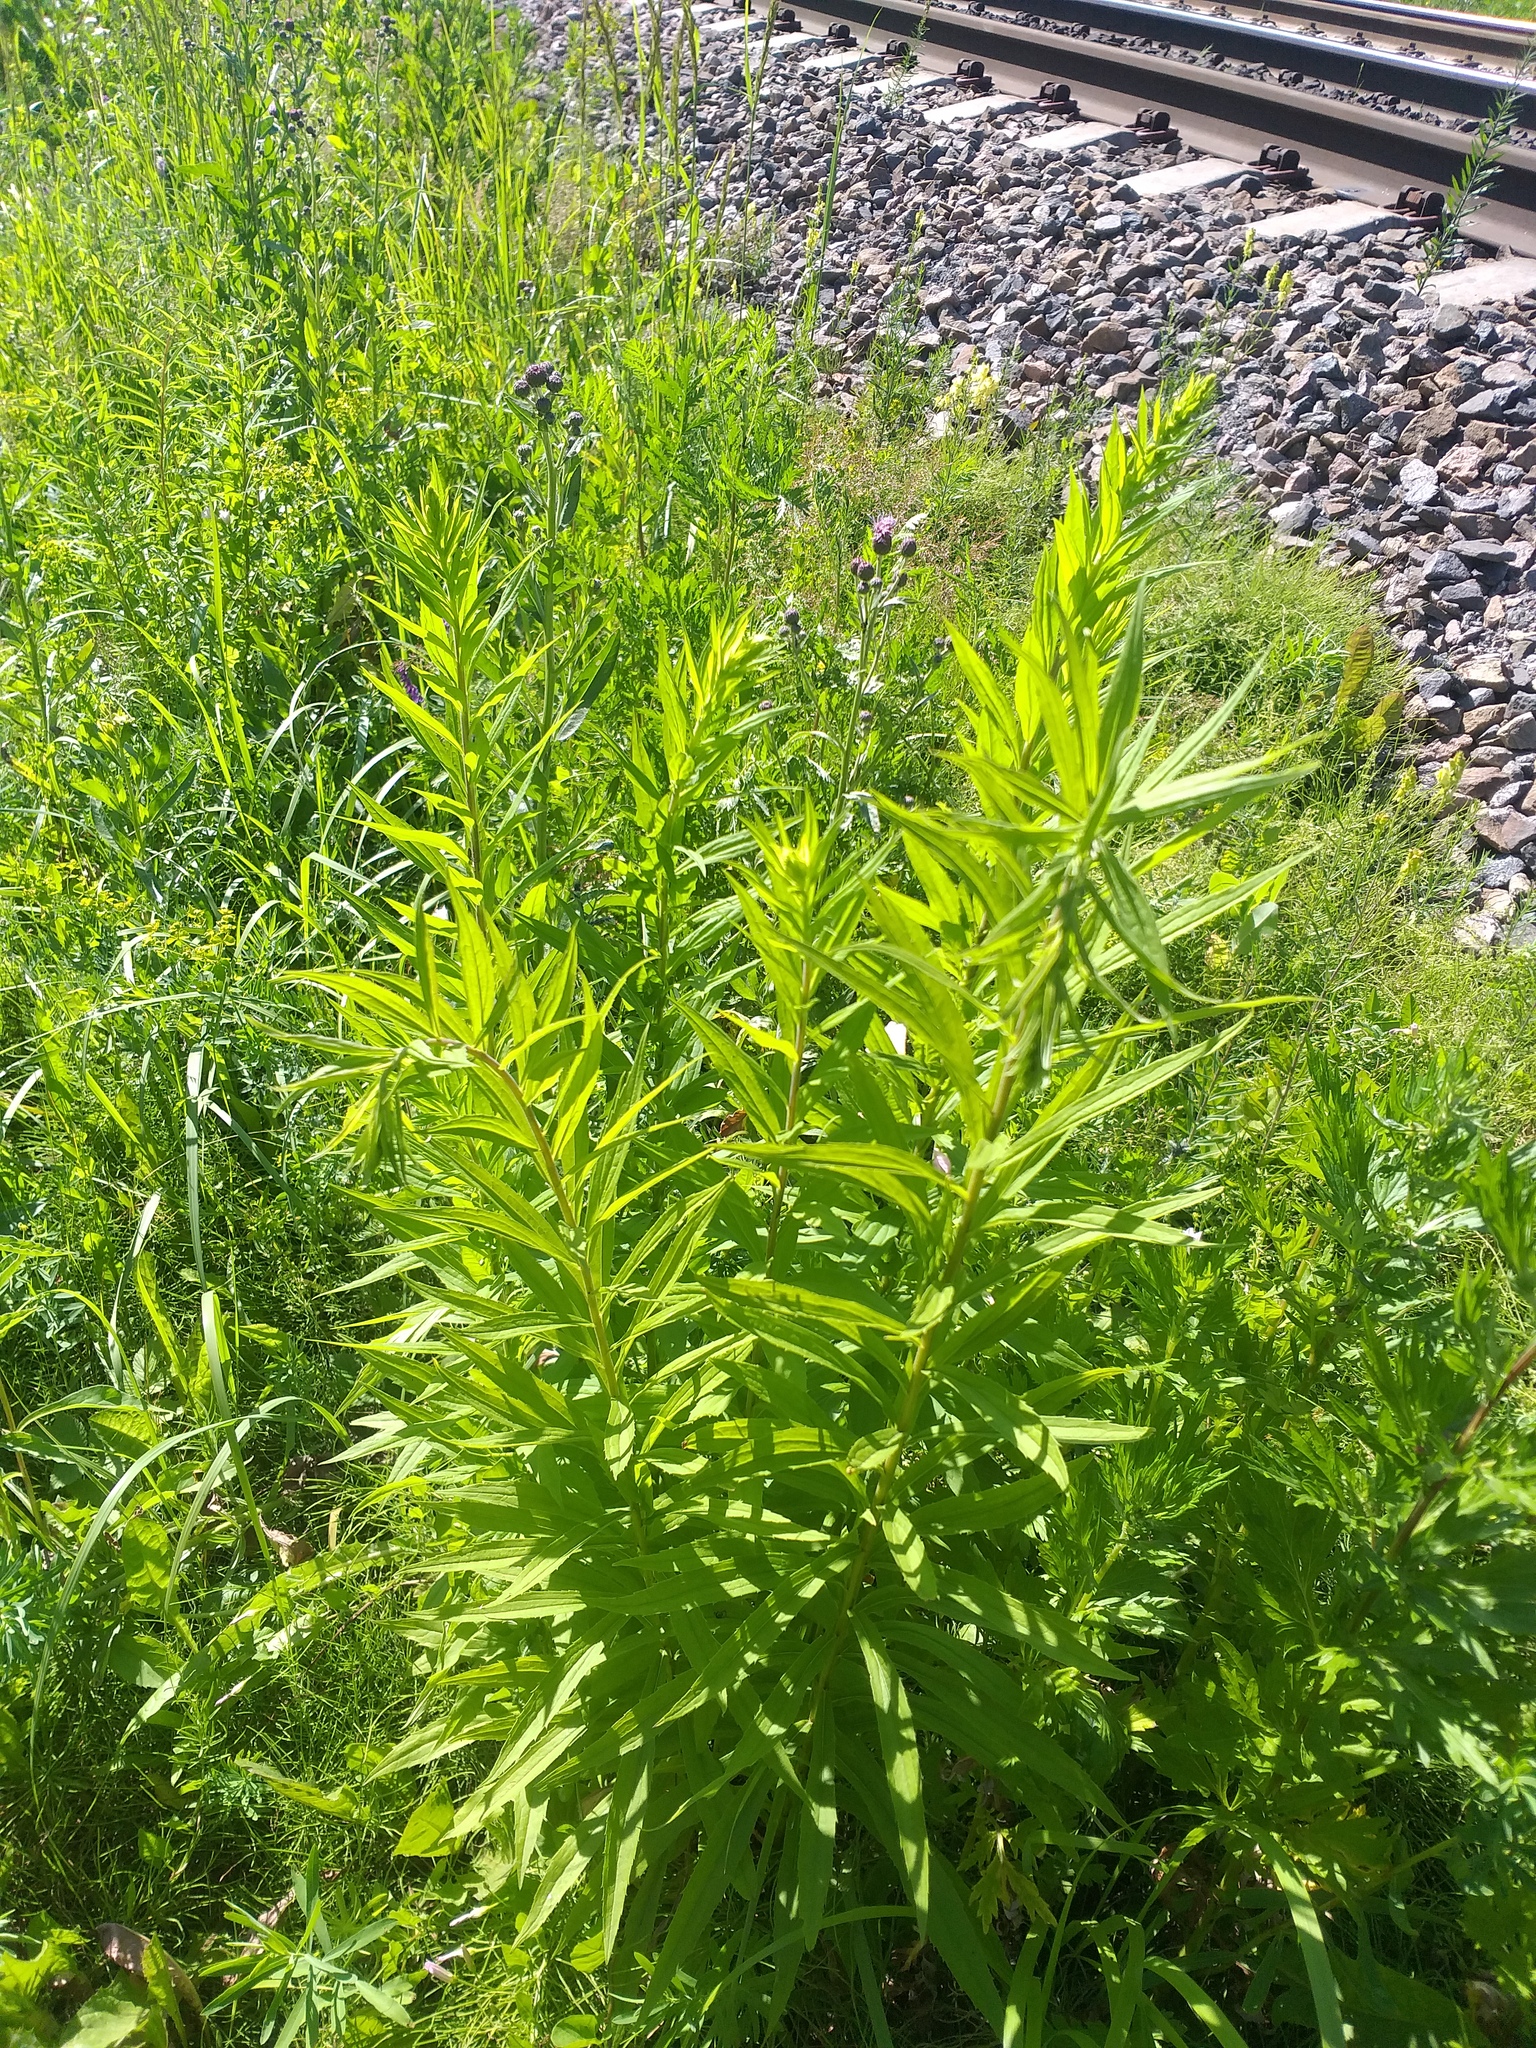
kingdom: Plantae
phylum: Tracheophyta
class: Magnoliopsida
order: Asterales
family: Asteraceae
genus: Solidago
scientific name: Solidago canadensis
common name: Canada goldenrod
